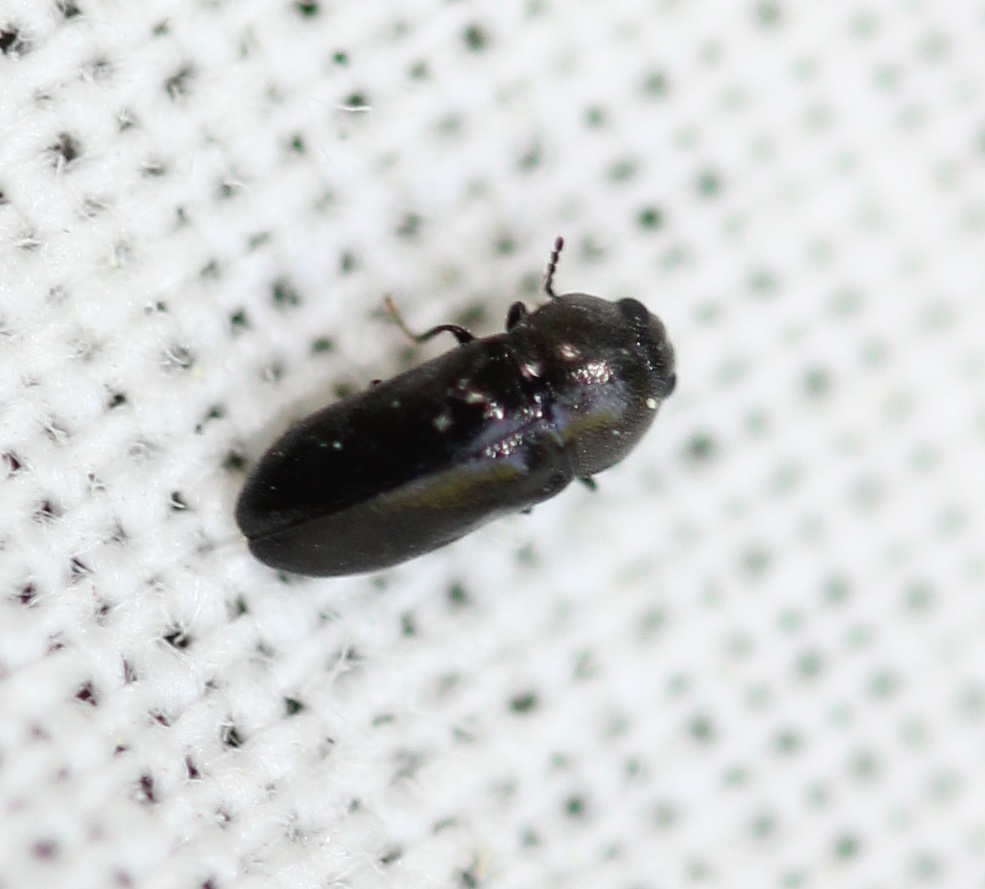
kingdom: Animalia
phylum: Arthropoda
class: Insecta
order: Coleoptera
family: Buprestidae
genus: Mastogenius
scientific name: Mastogenius crenulatus
